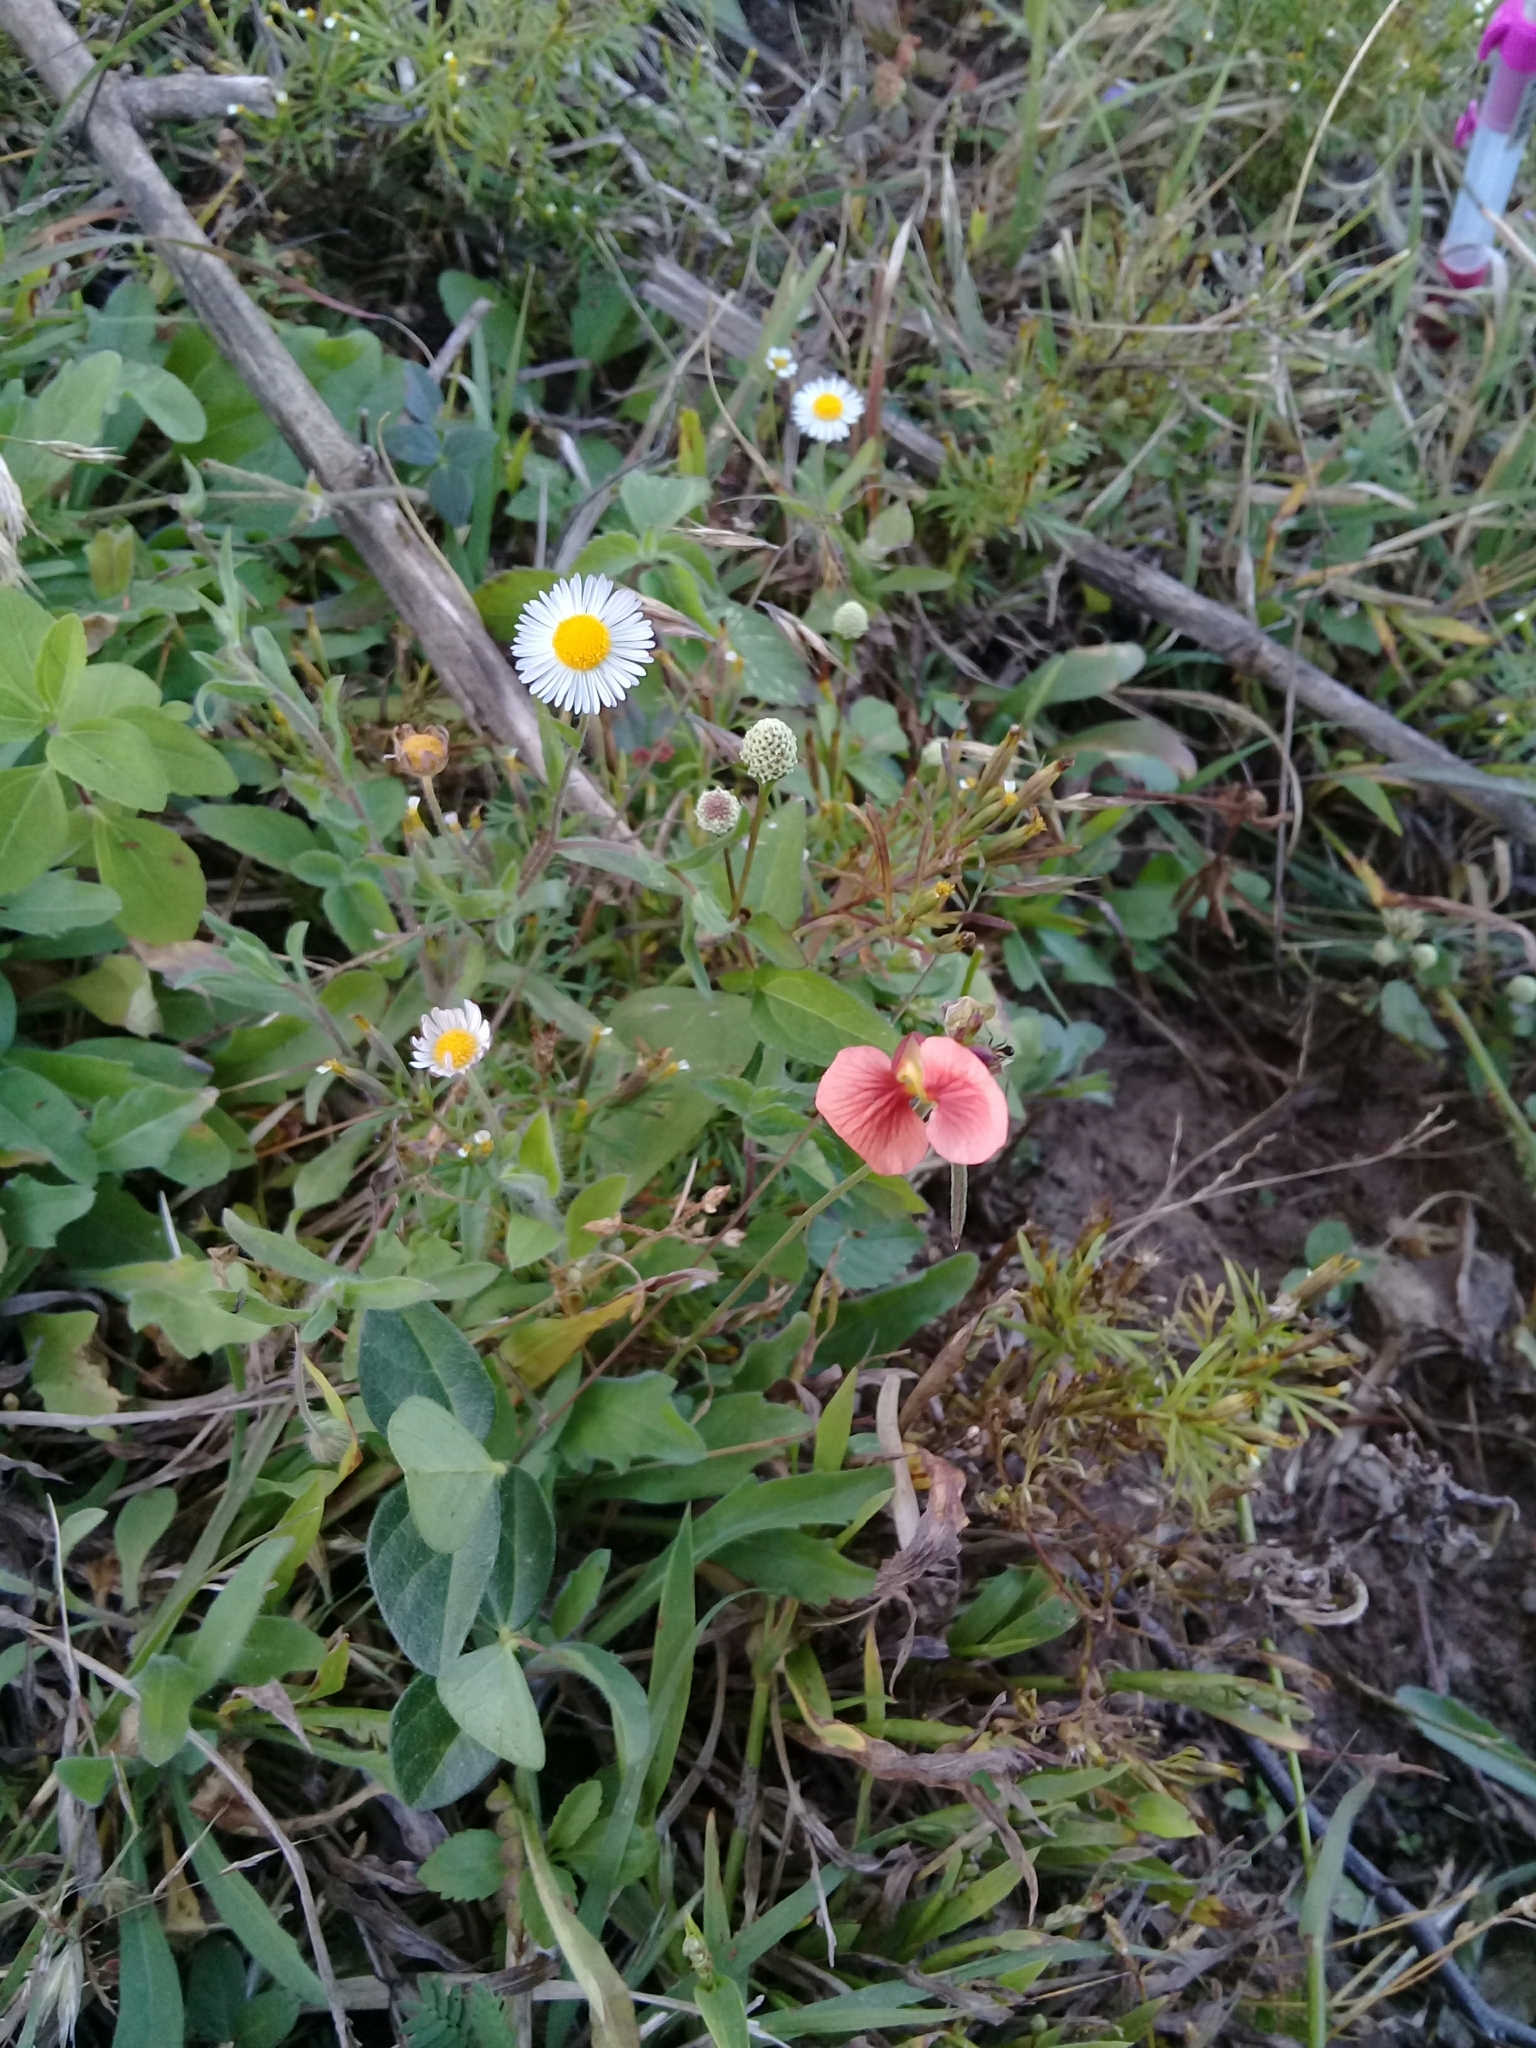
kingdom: Plantae
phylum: Tracheophyta
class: Magnoliopsida
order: Fabales
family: Fabaceae
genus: Macroptilium
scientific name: Macroptilium gibbosifolium
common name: Variableleaf bushbean
